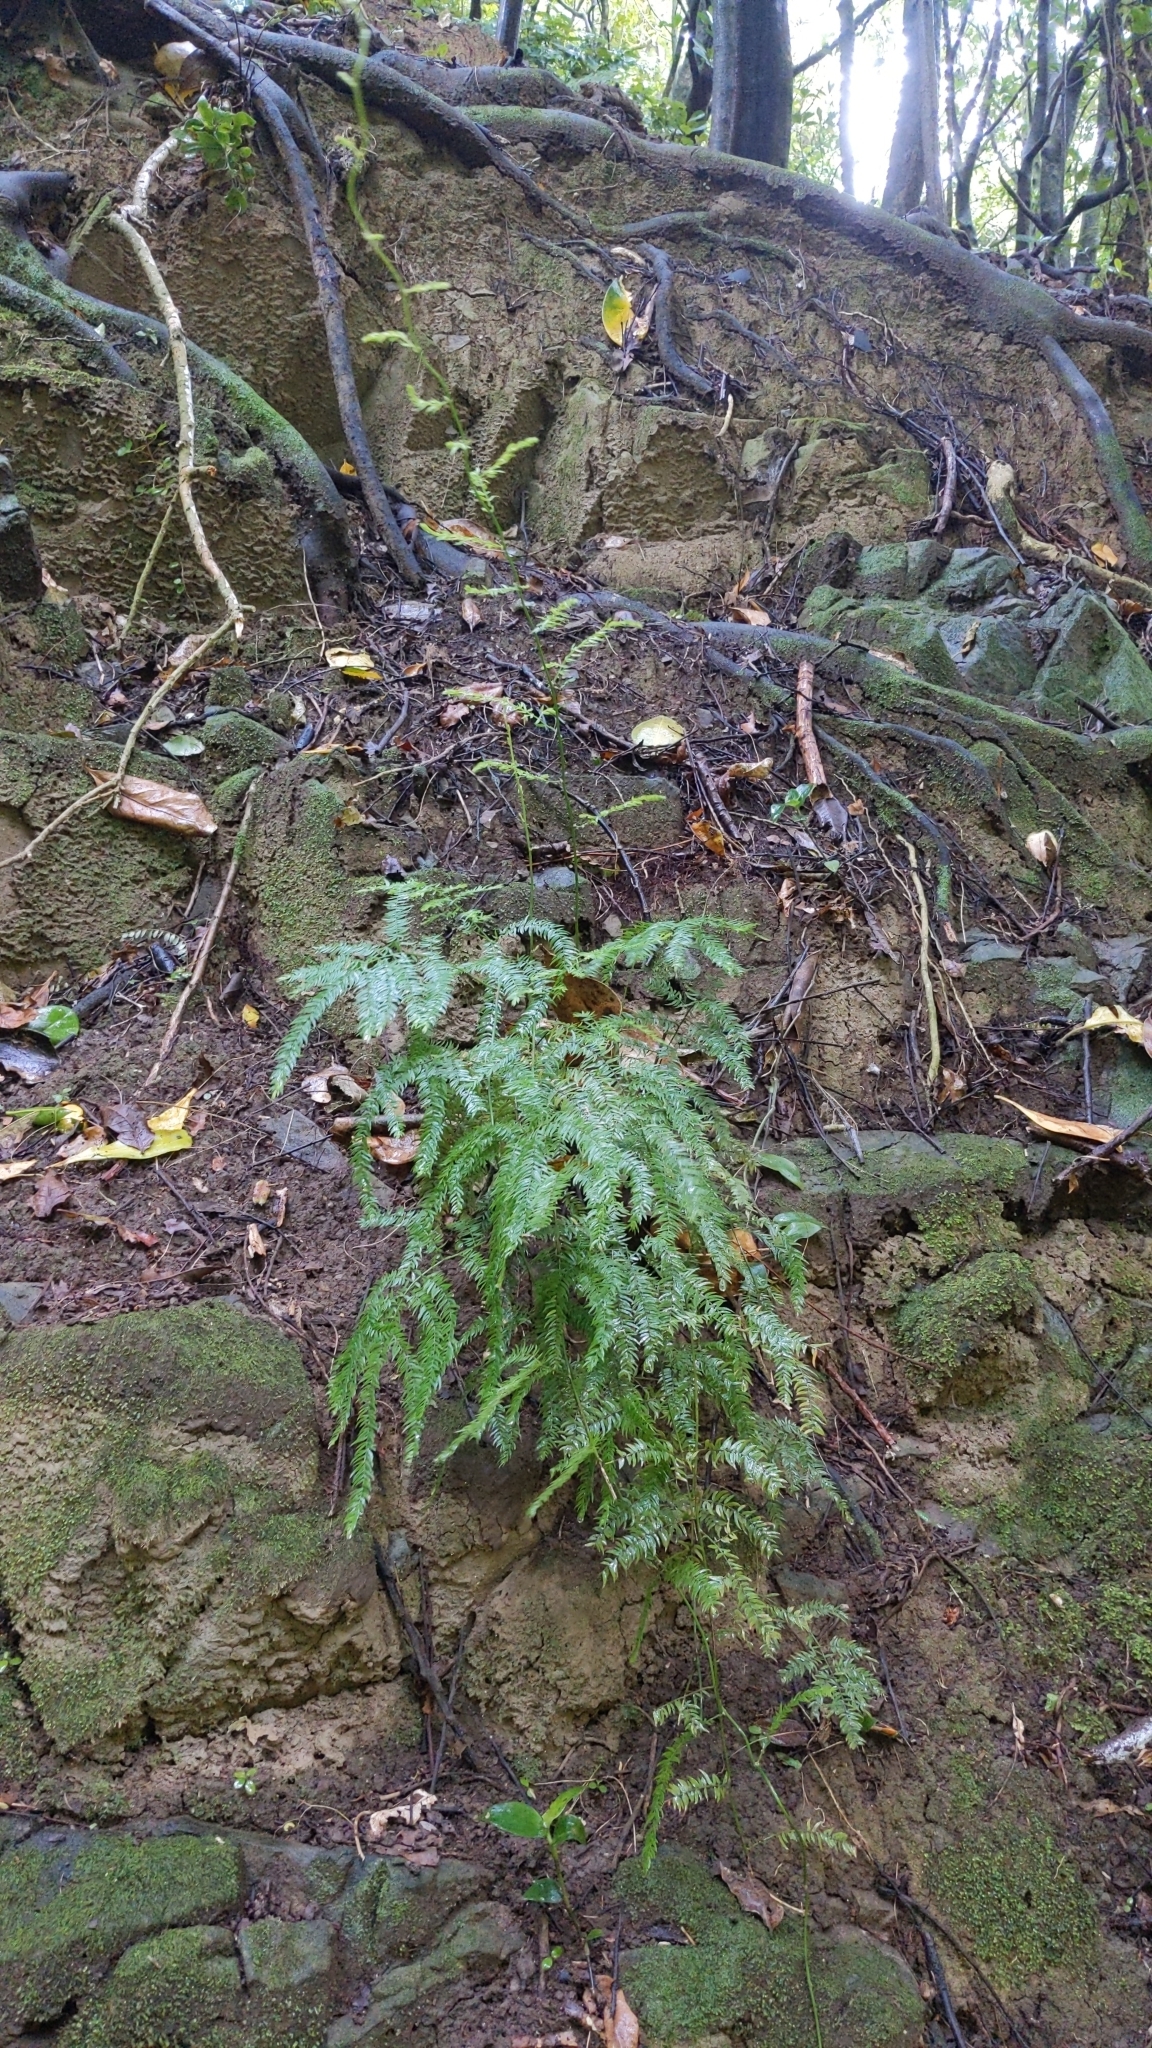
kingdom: Plantae
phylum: Tracheophyta
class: Liliopsida
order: Asparagales
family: Asparagaceae
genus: Asparagus
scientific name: Asparagus scandens
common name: Asparagus-fern
